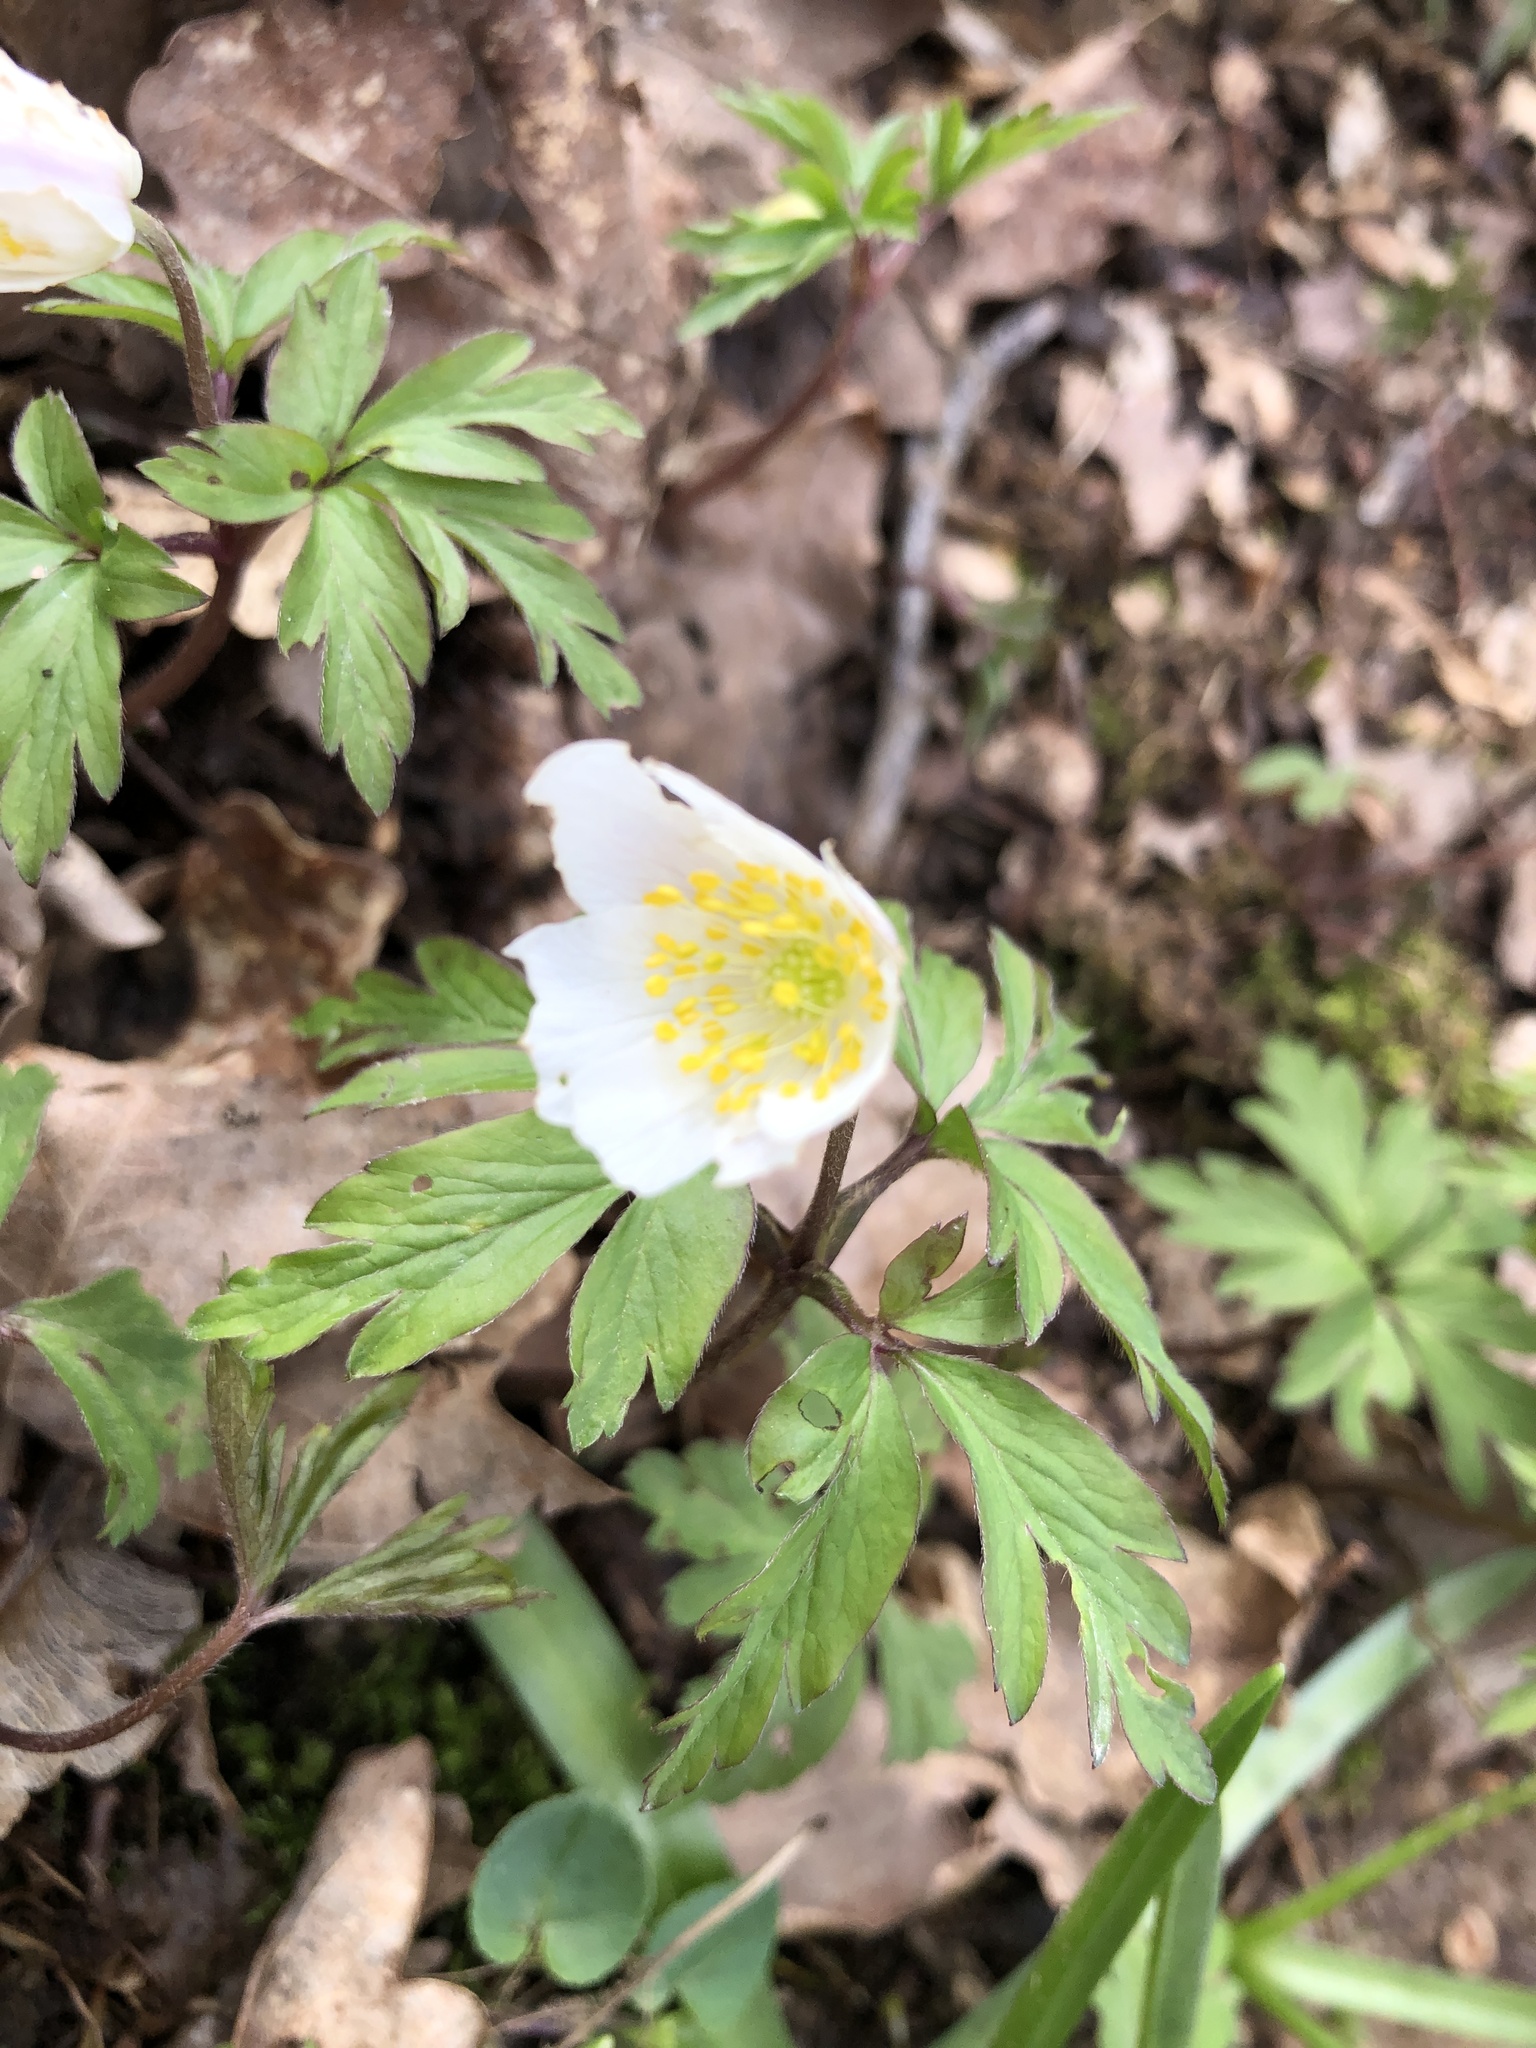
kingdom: Plantae
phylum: Tracheophyta
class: Magnoliopsida
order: Ranunculales
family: Ranunculaceae
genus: Anemone
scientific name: Anemone nemorosa
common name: Wood anemone
